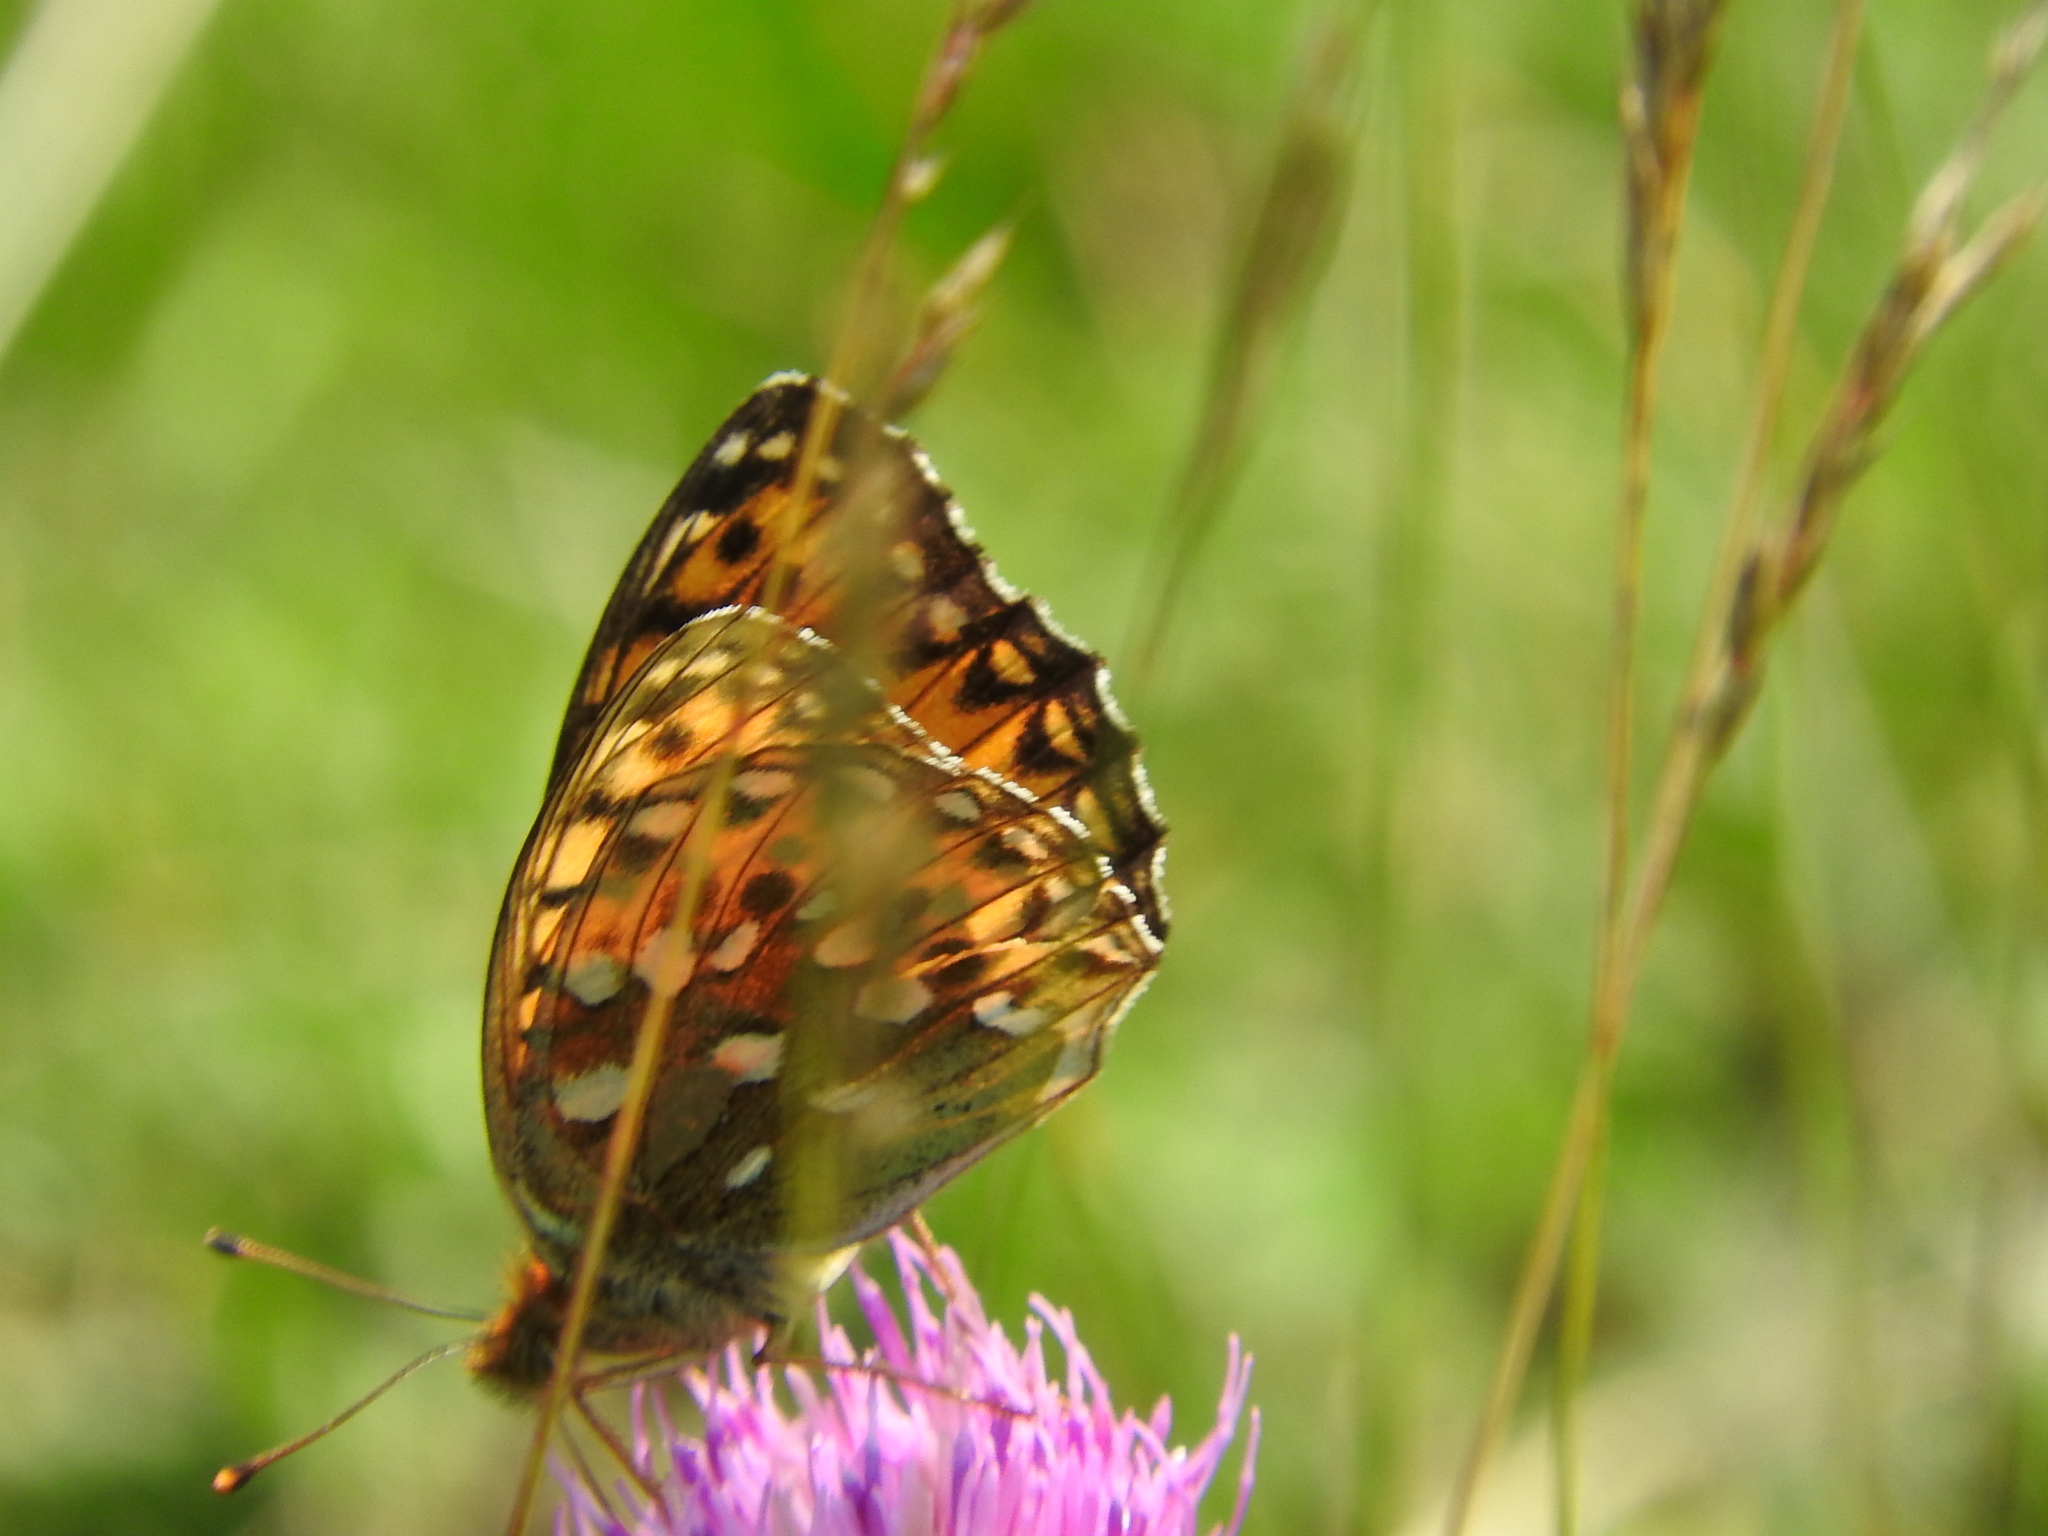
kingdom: Animalia
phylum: Arthropoda
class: Insecta
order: Lepidoptera
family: Nymphalidae
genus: Speyeria
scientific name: Speyeria aglaja
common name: Dark green fritillary
